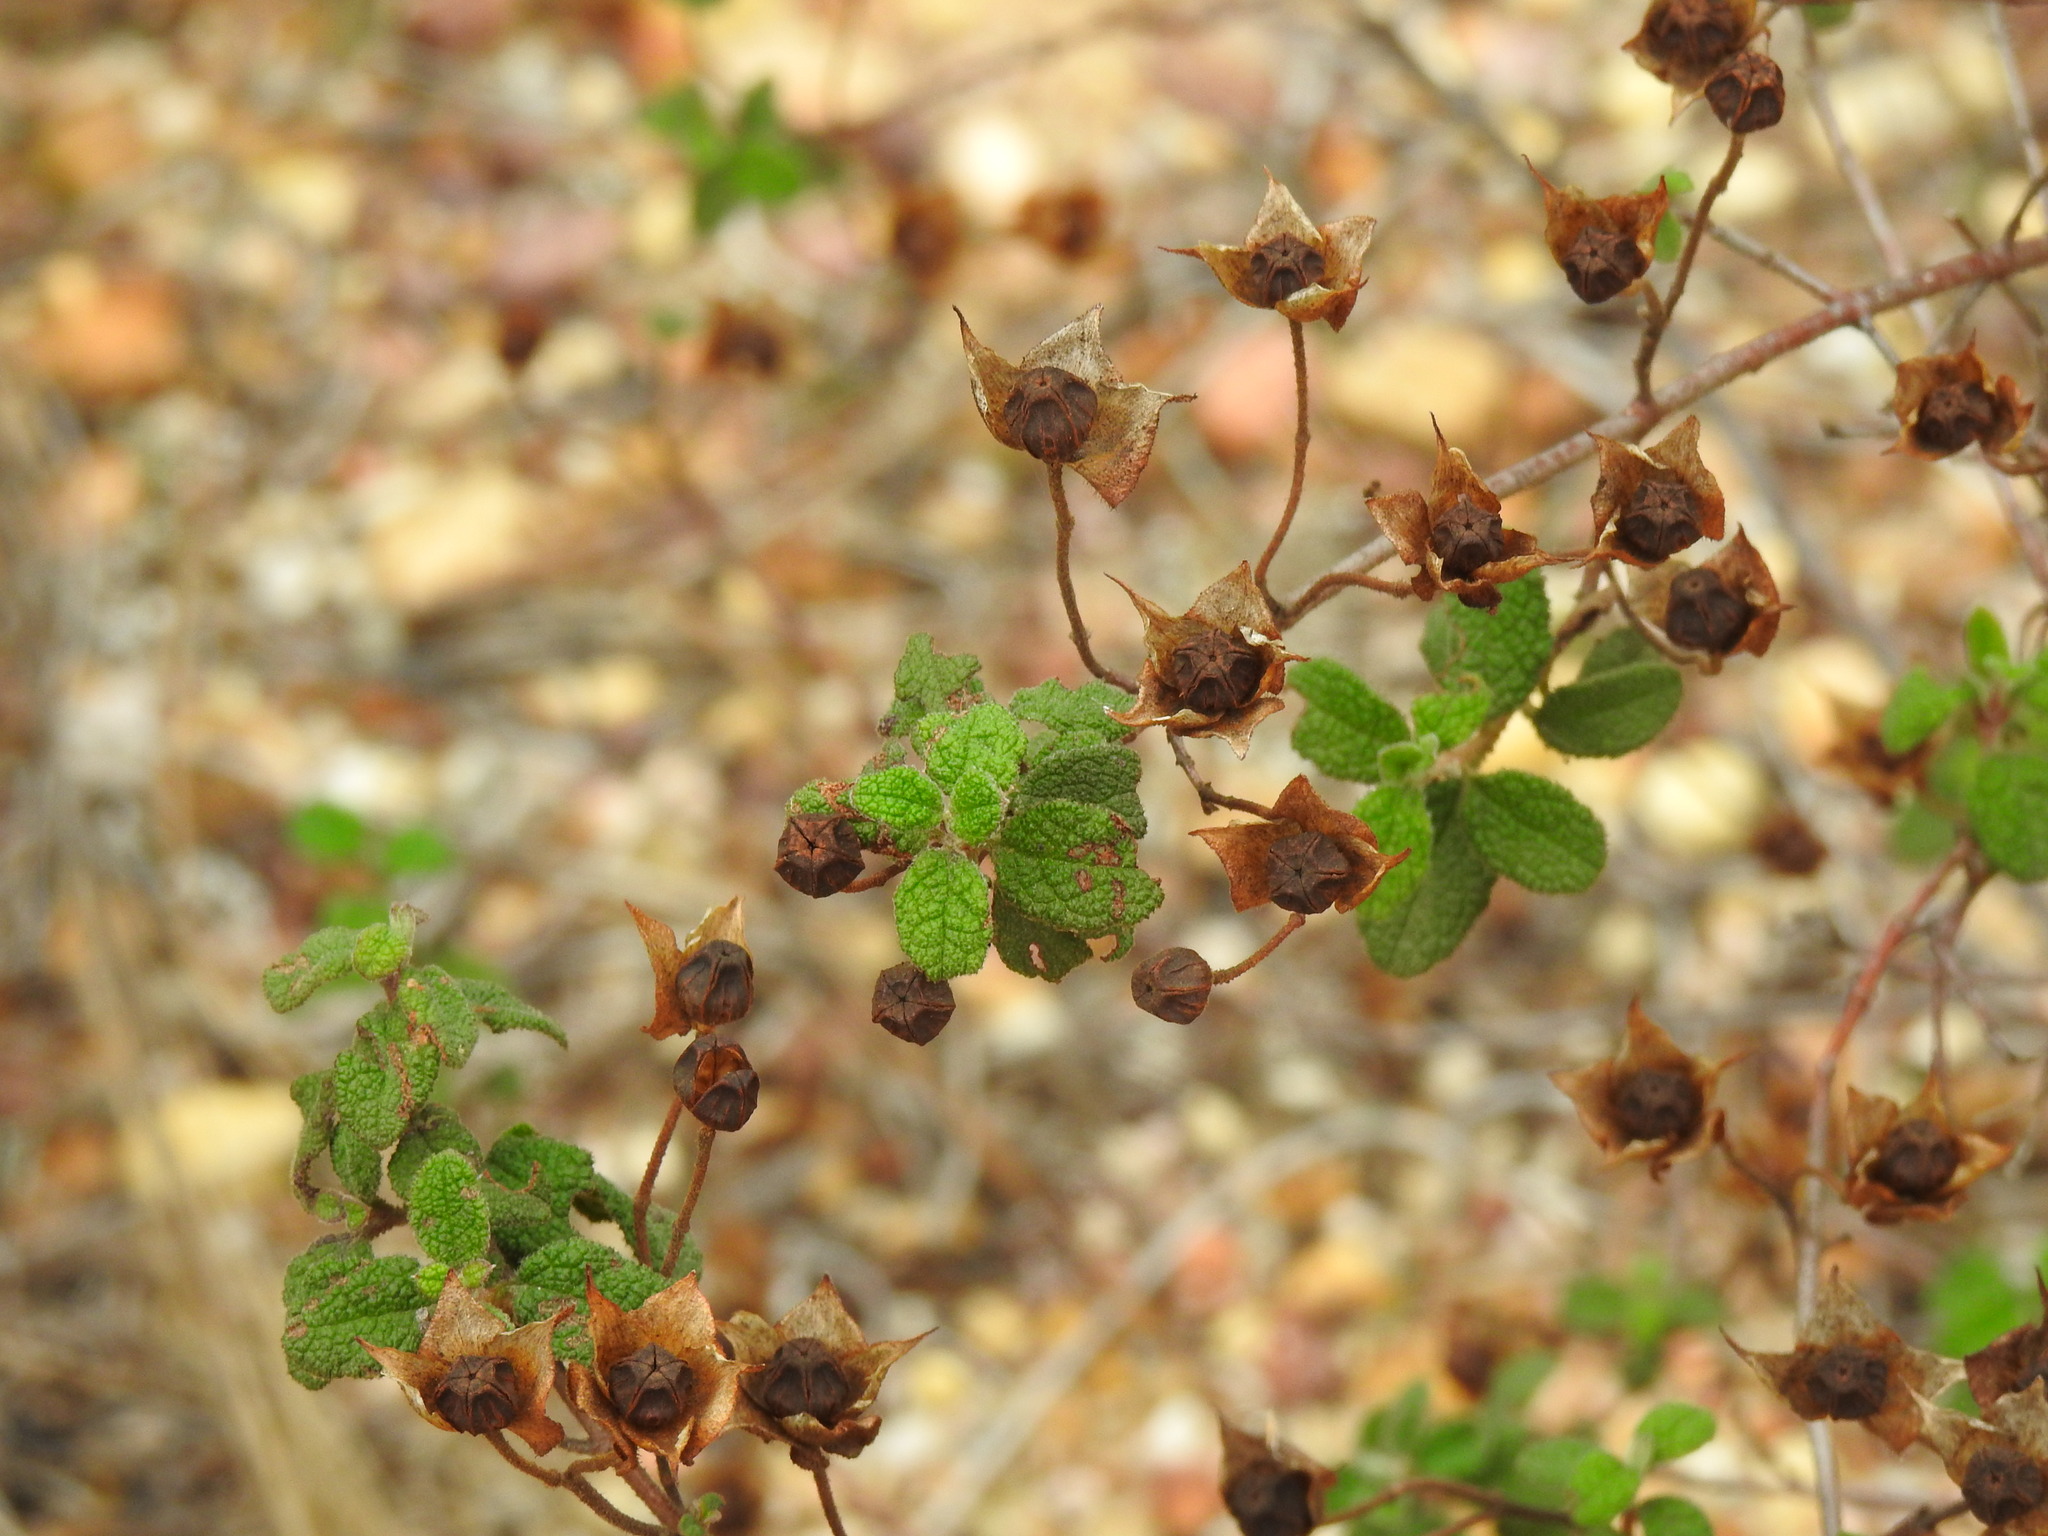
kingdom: Plantae
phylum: Tracheophyta
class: Magnoliopsida
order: Malvales
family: Cistaceae
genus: Cistus
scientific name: Cistus salviifolius
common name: Salvia cistus
